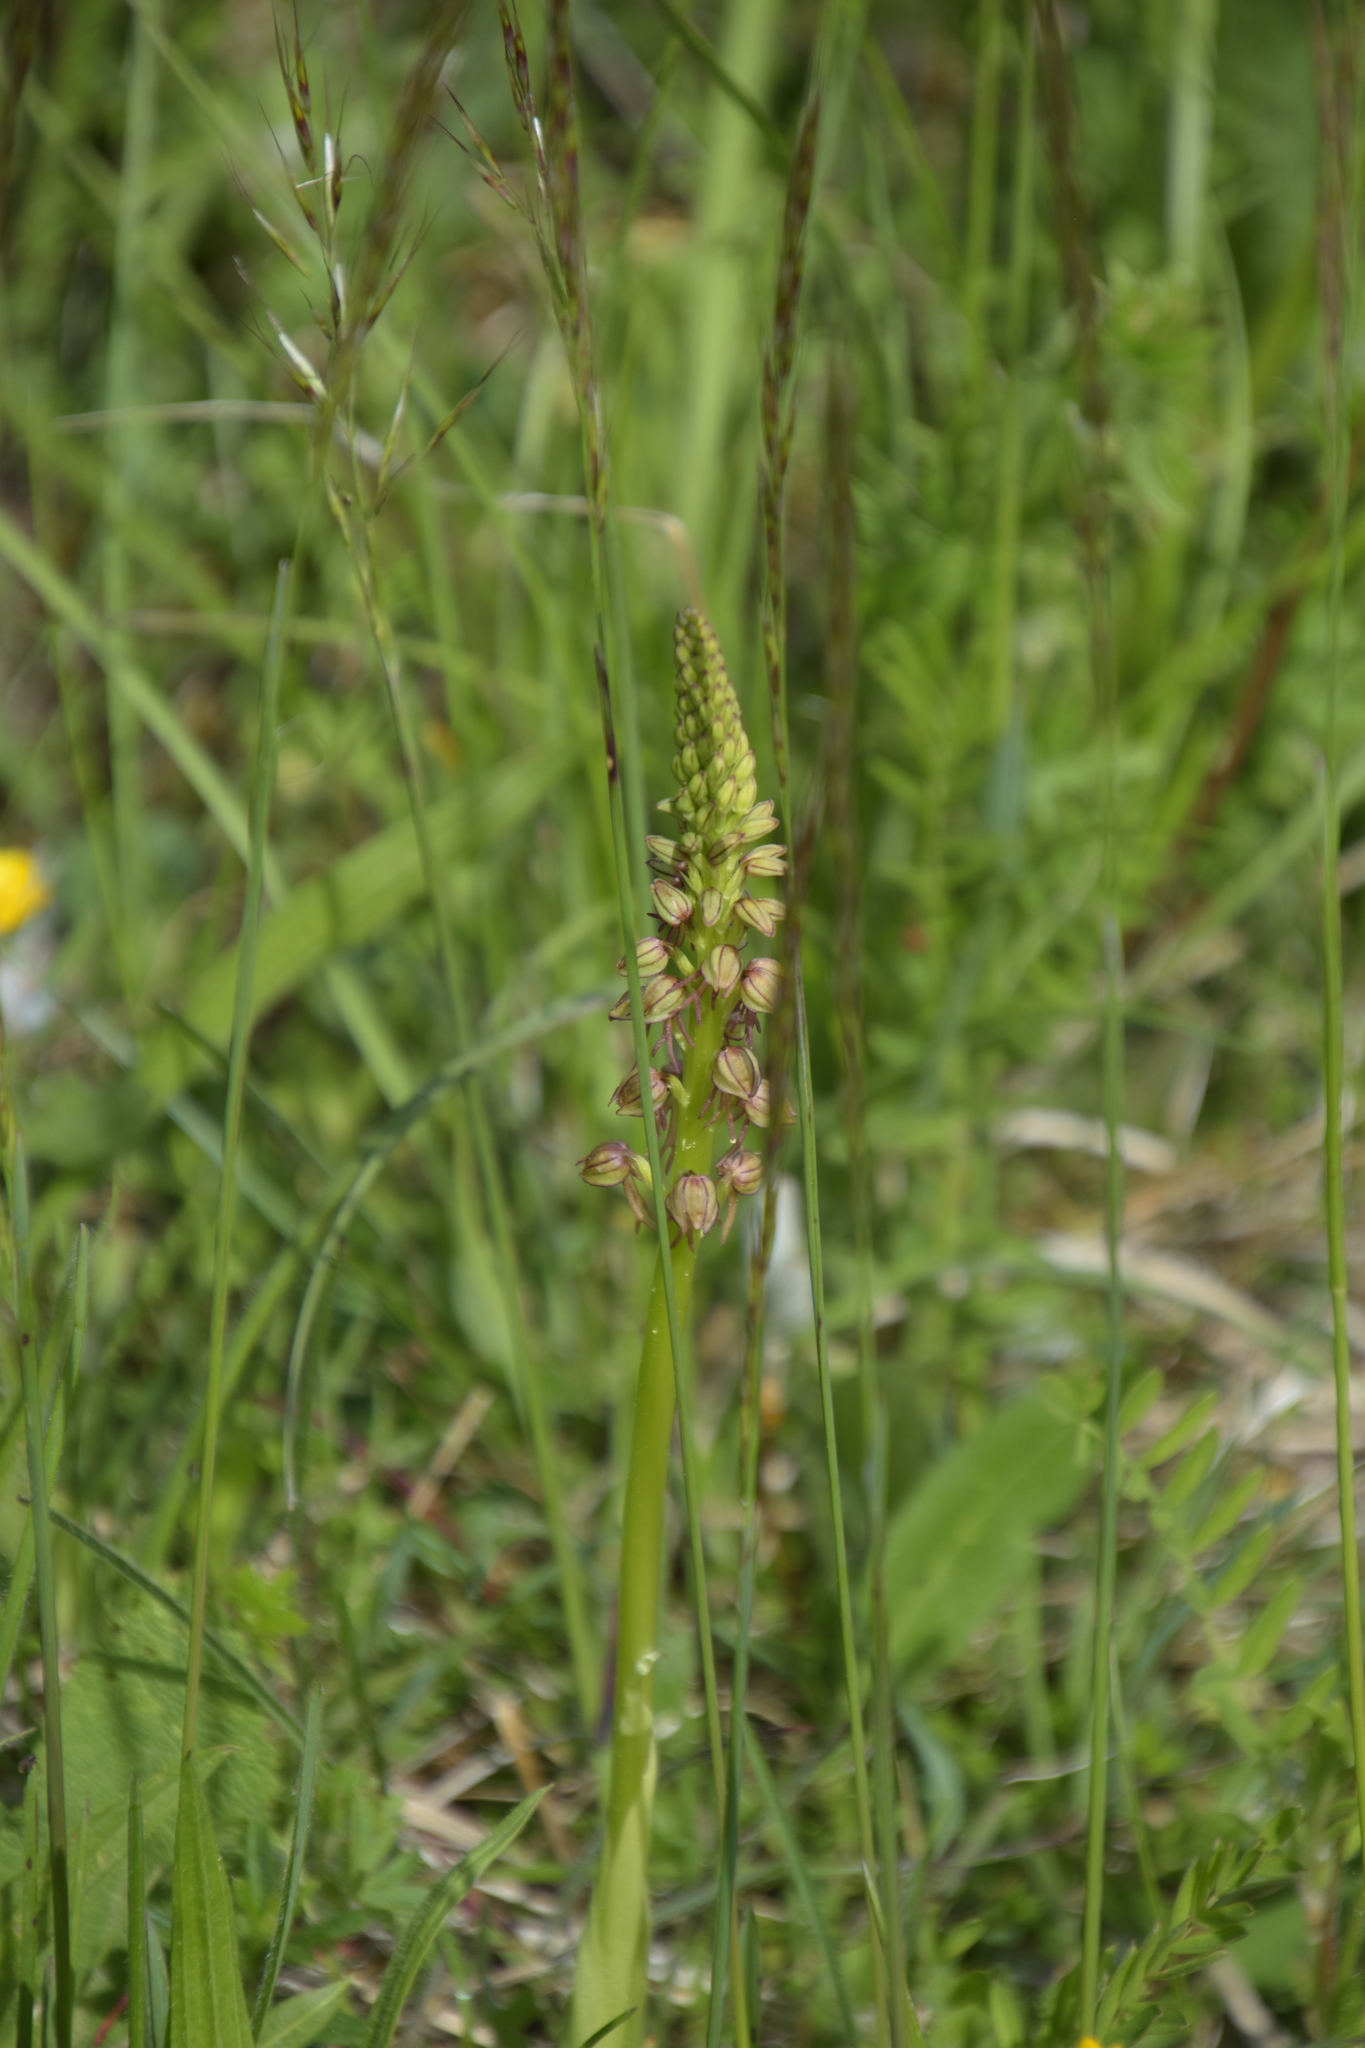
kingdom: Plantae
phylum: Tracheophyta
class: Liliopsida
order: Asparagales
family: Orchidaceae
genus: Orchis
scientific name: Orchis anthropophora
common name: Man orchid
